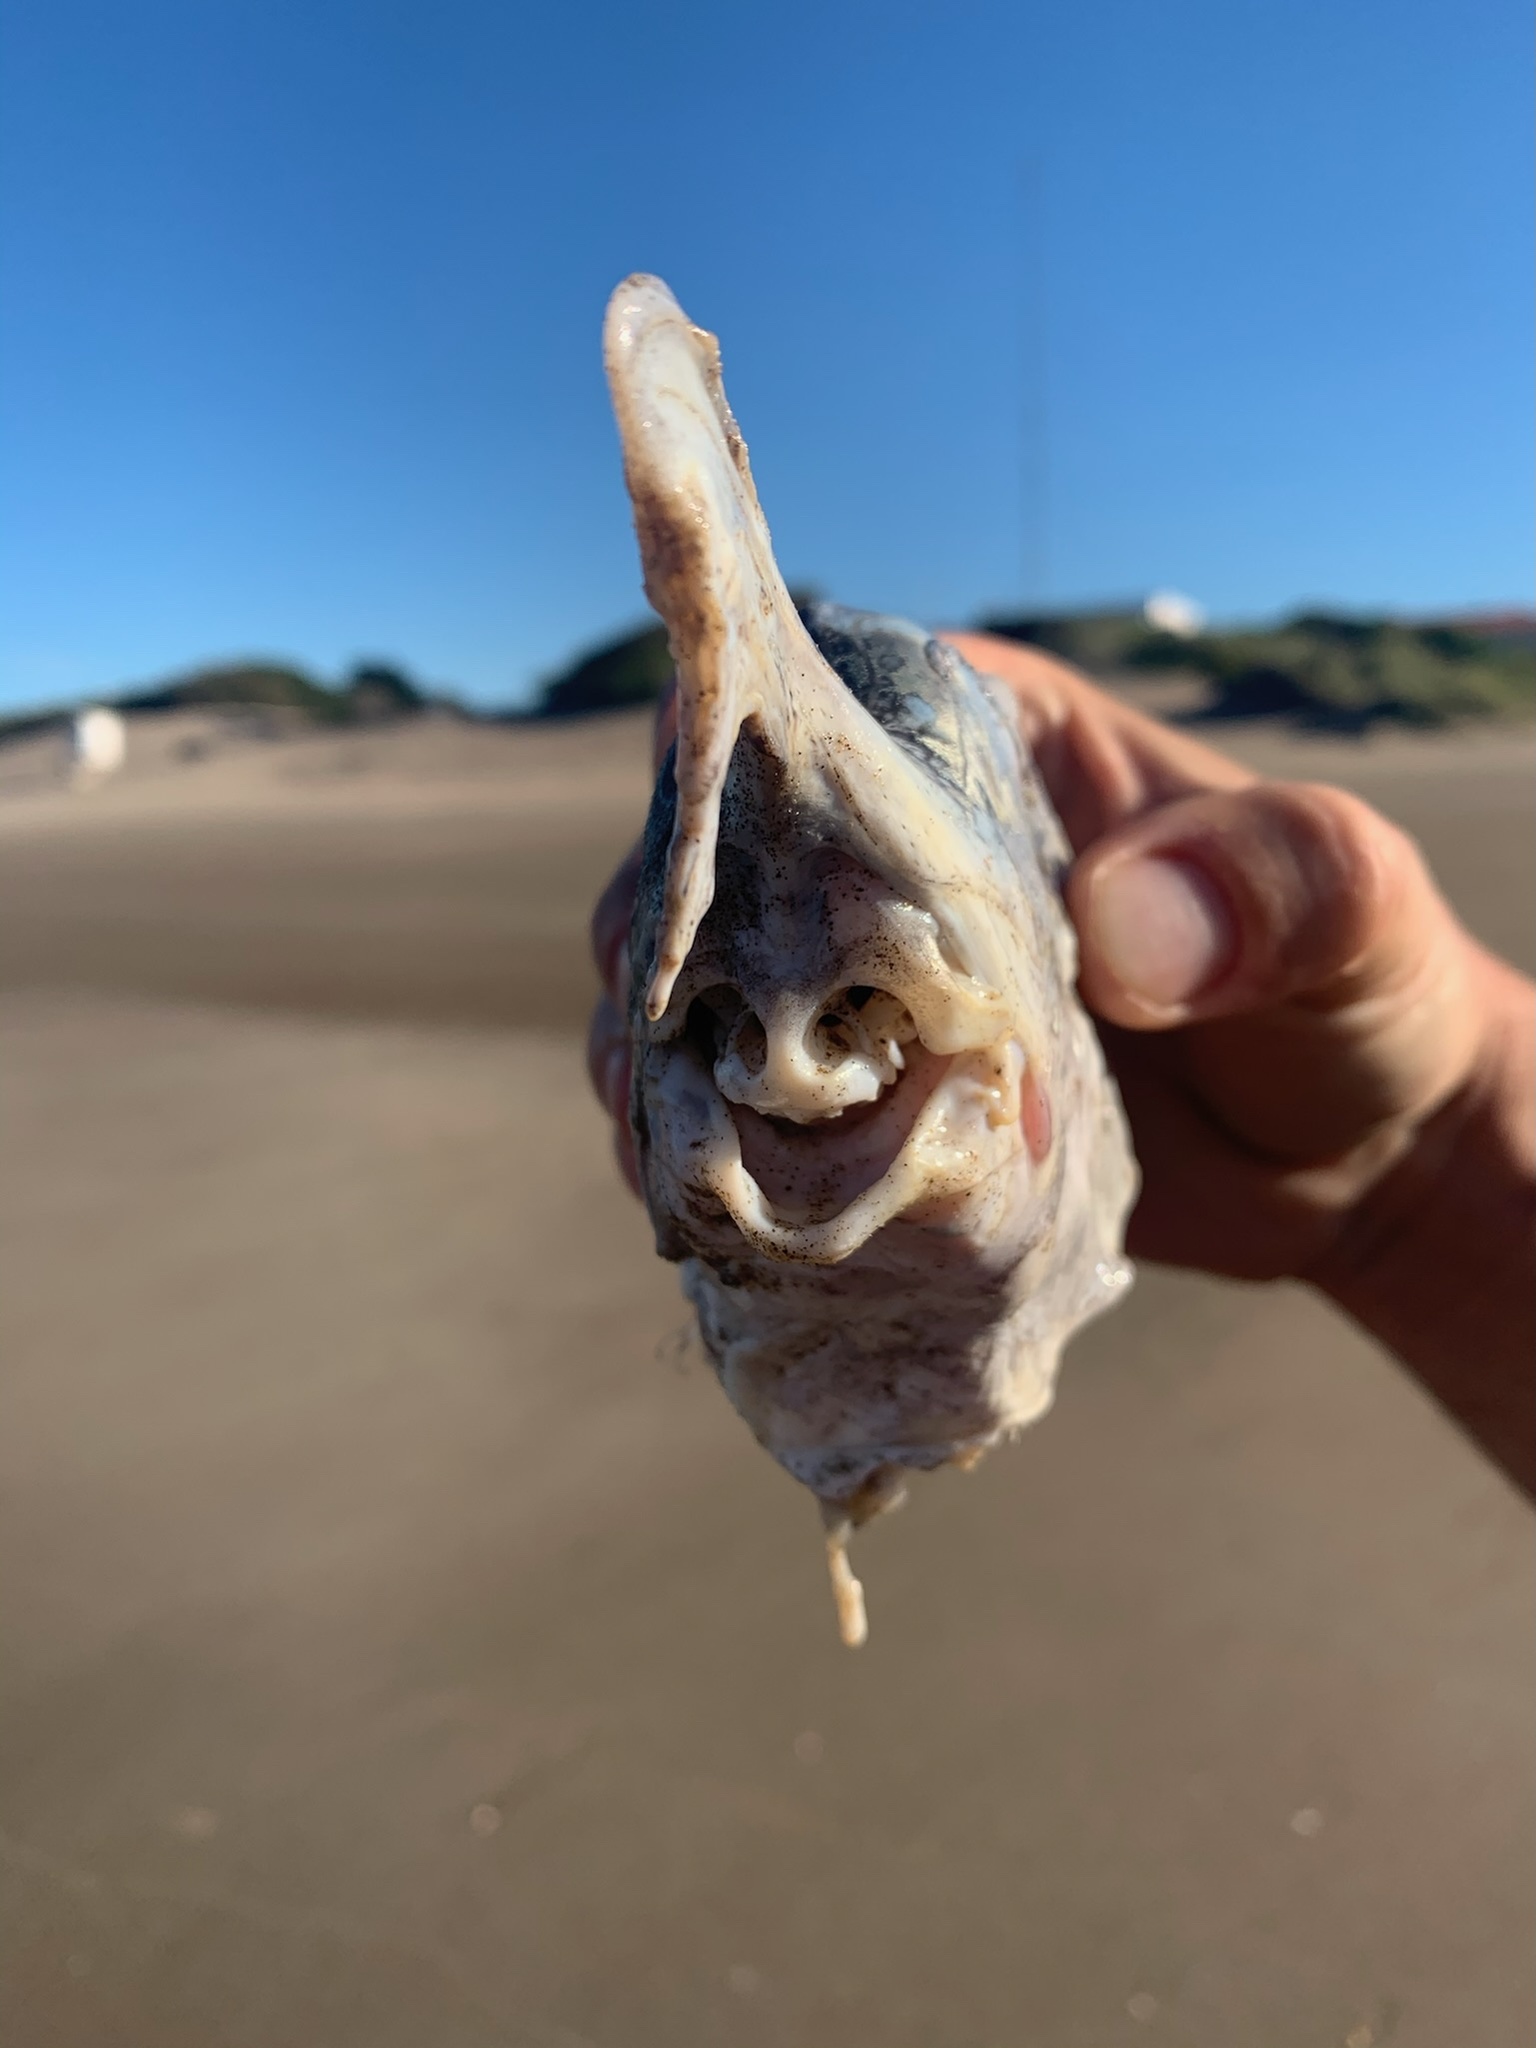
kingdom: Animalia
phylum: Chordata
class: Holocephali
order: Chimaeriformes
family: Callorhinchidae
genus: Callorhinchus
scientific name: Callorhinchus callorynchus
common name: Elephant fish
